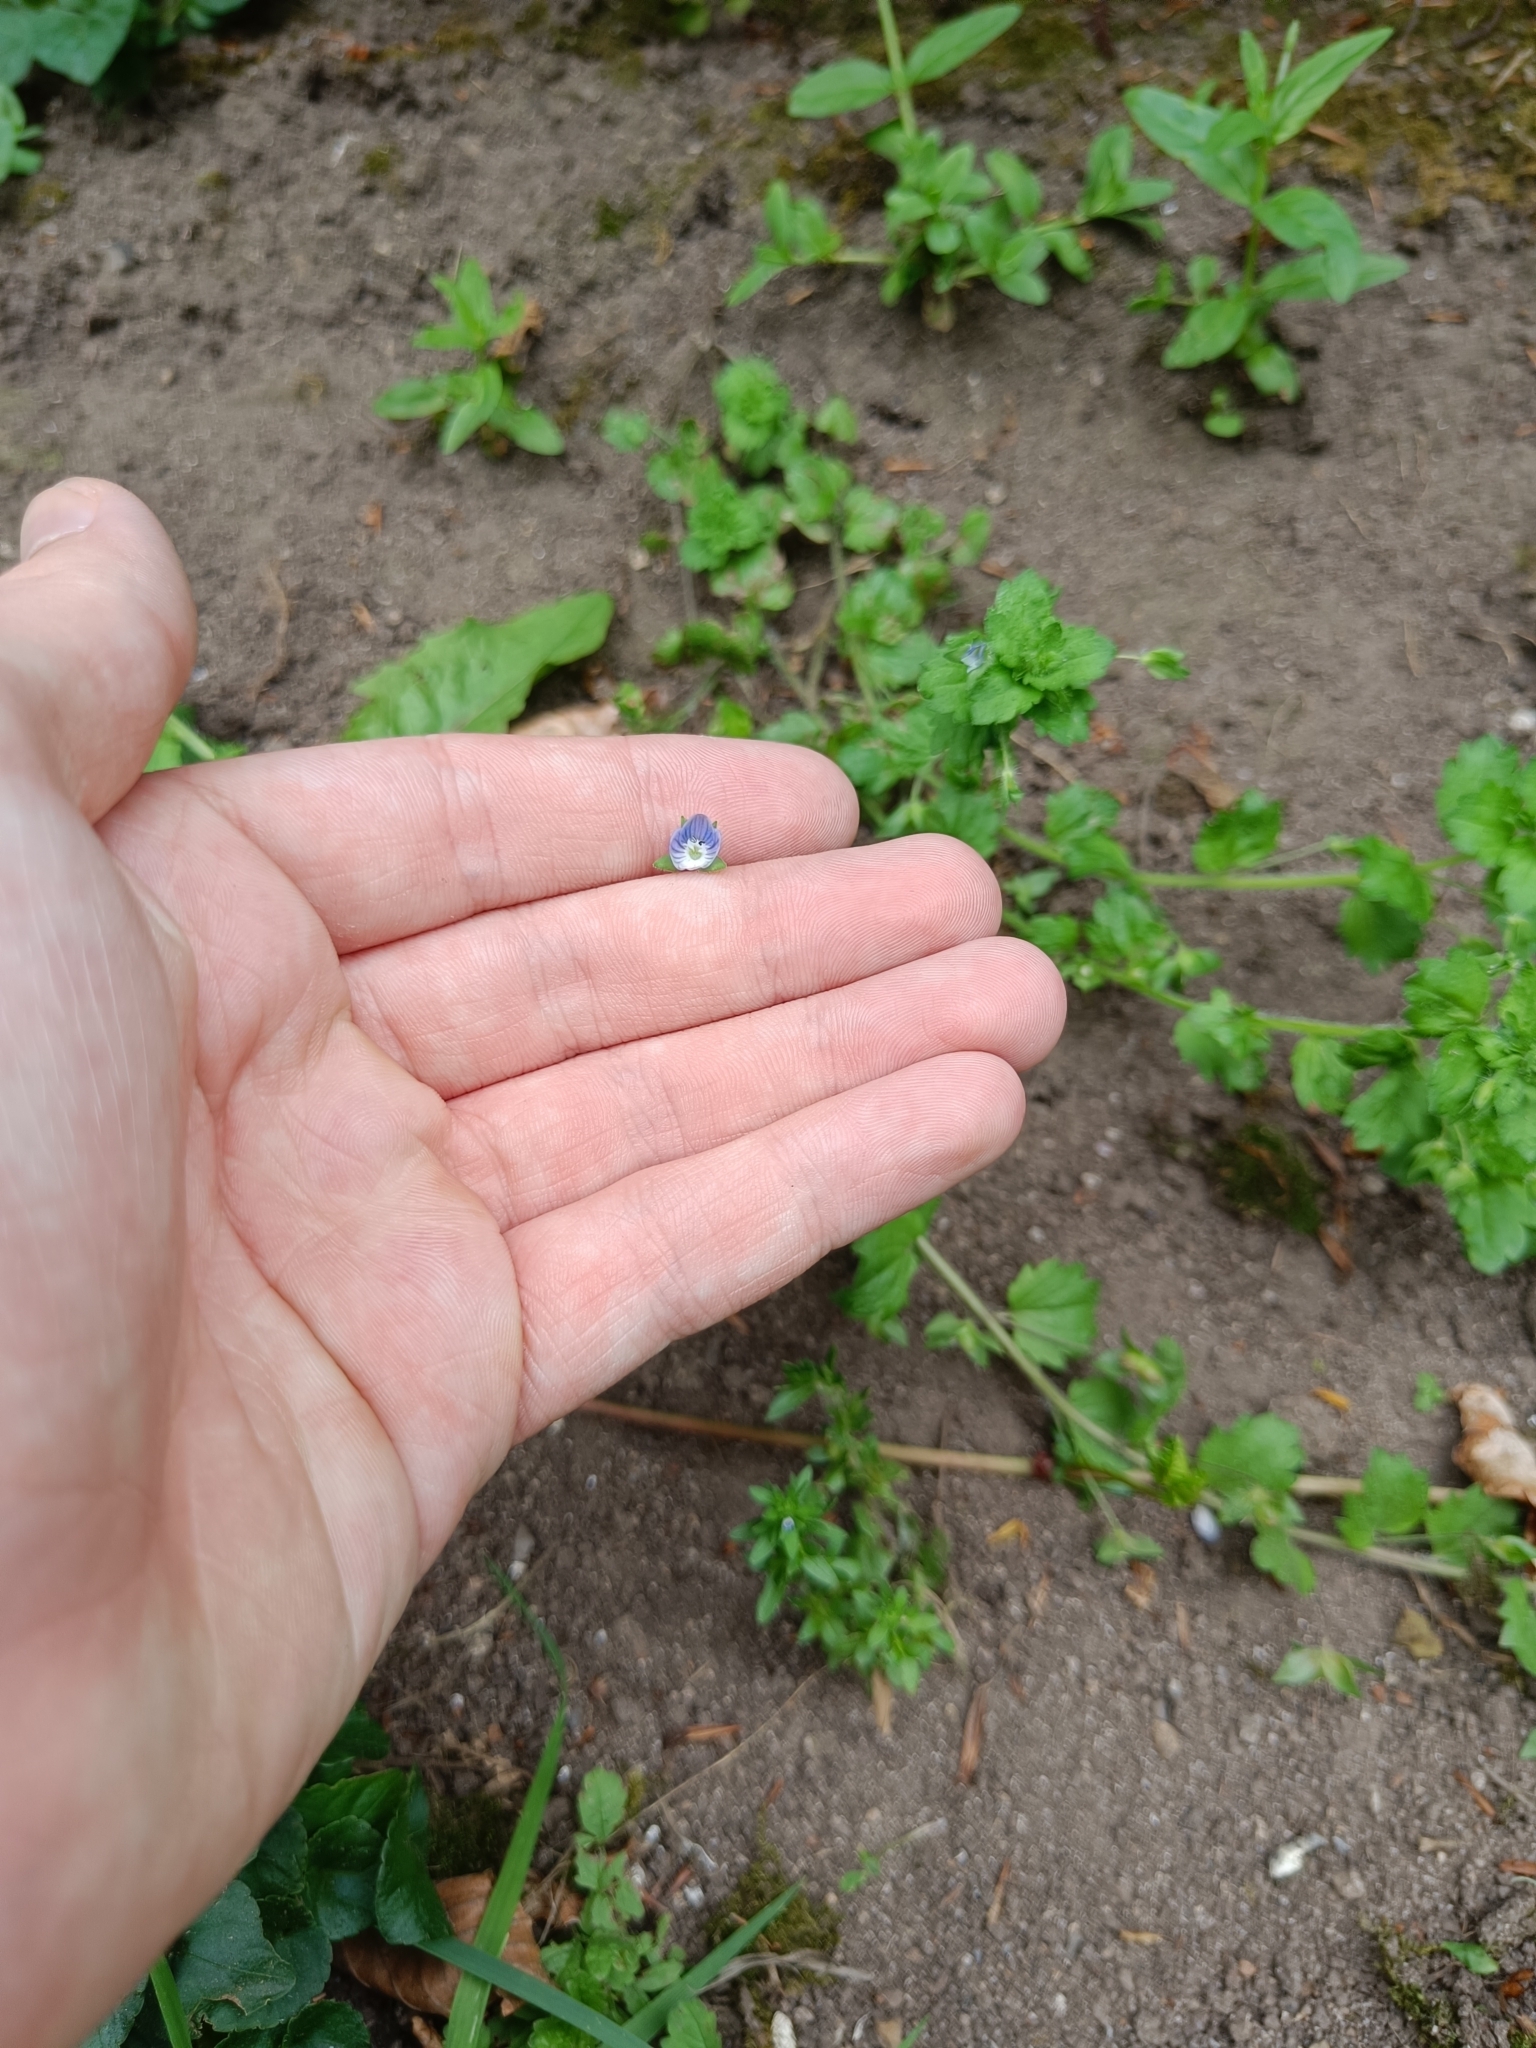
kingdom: Plantae
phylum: Tracheophyta
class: Magnoliopsida
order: Lamiales
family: Plantaginaceae
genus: Veronica
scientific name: Veronica persica
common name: Common field-speedwell
